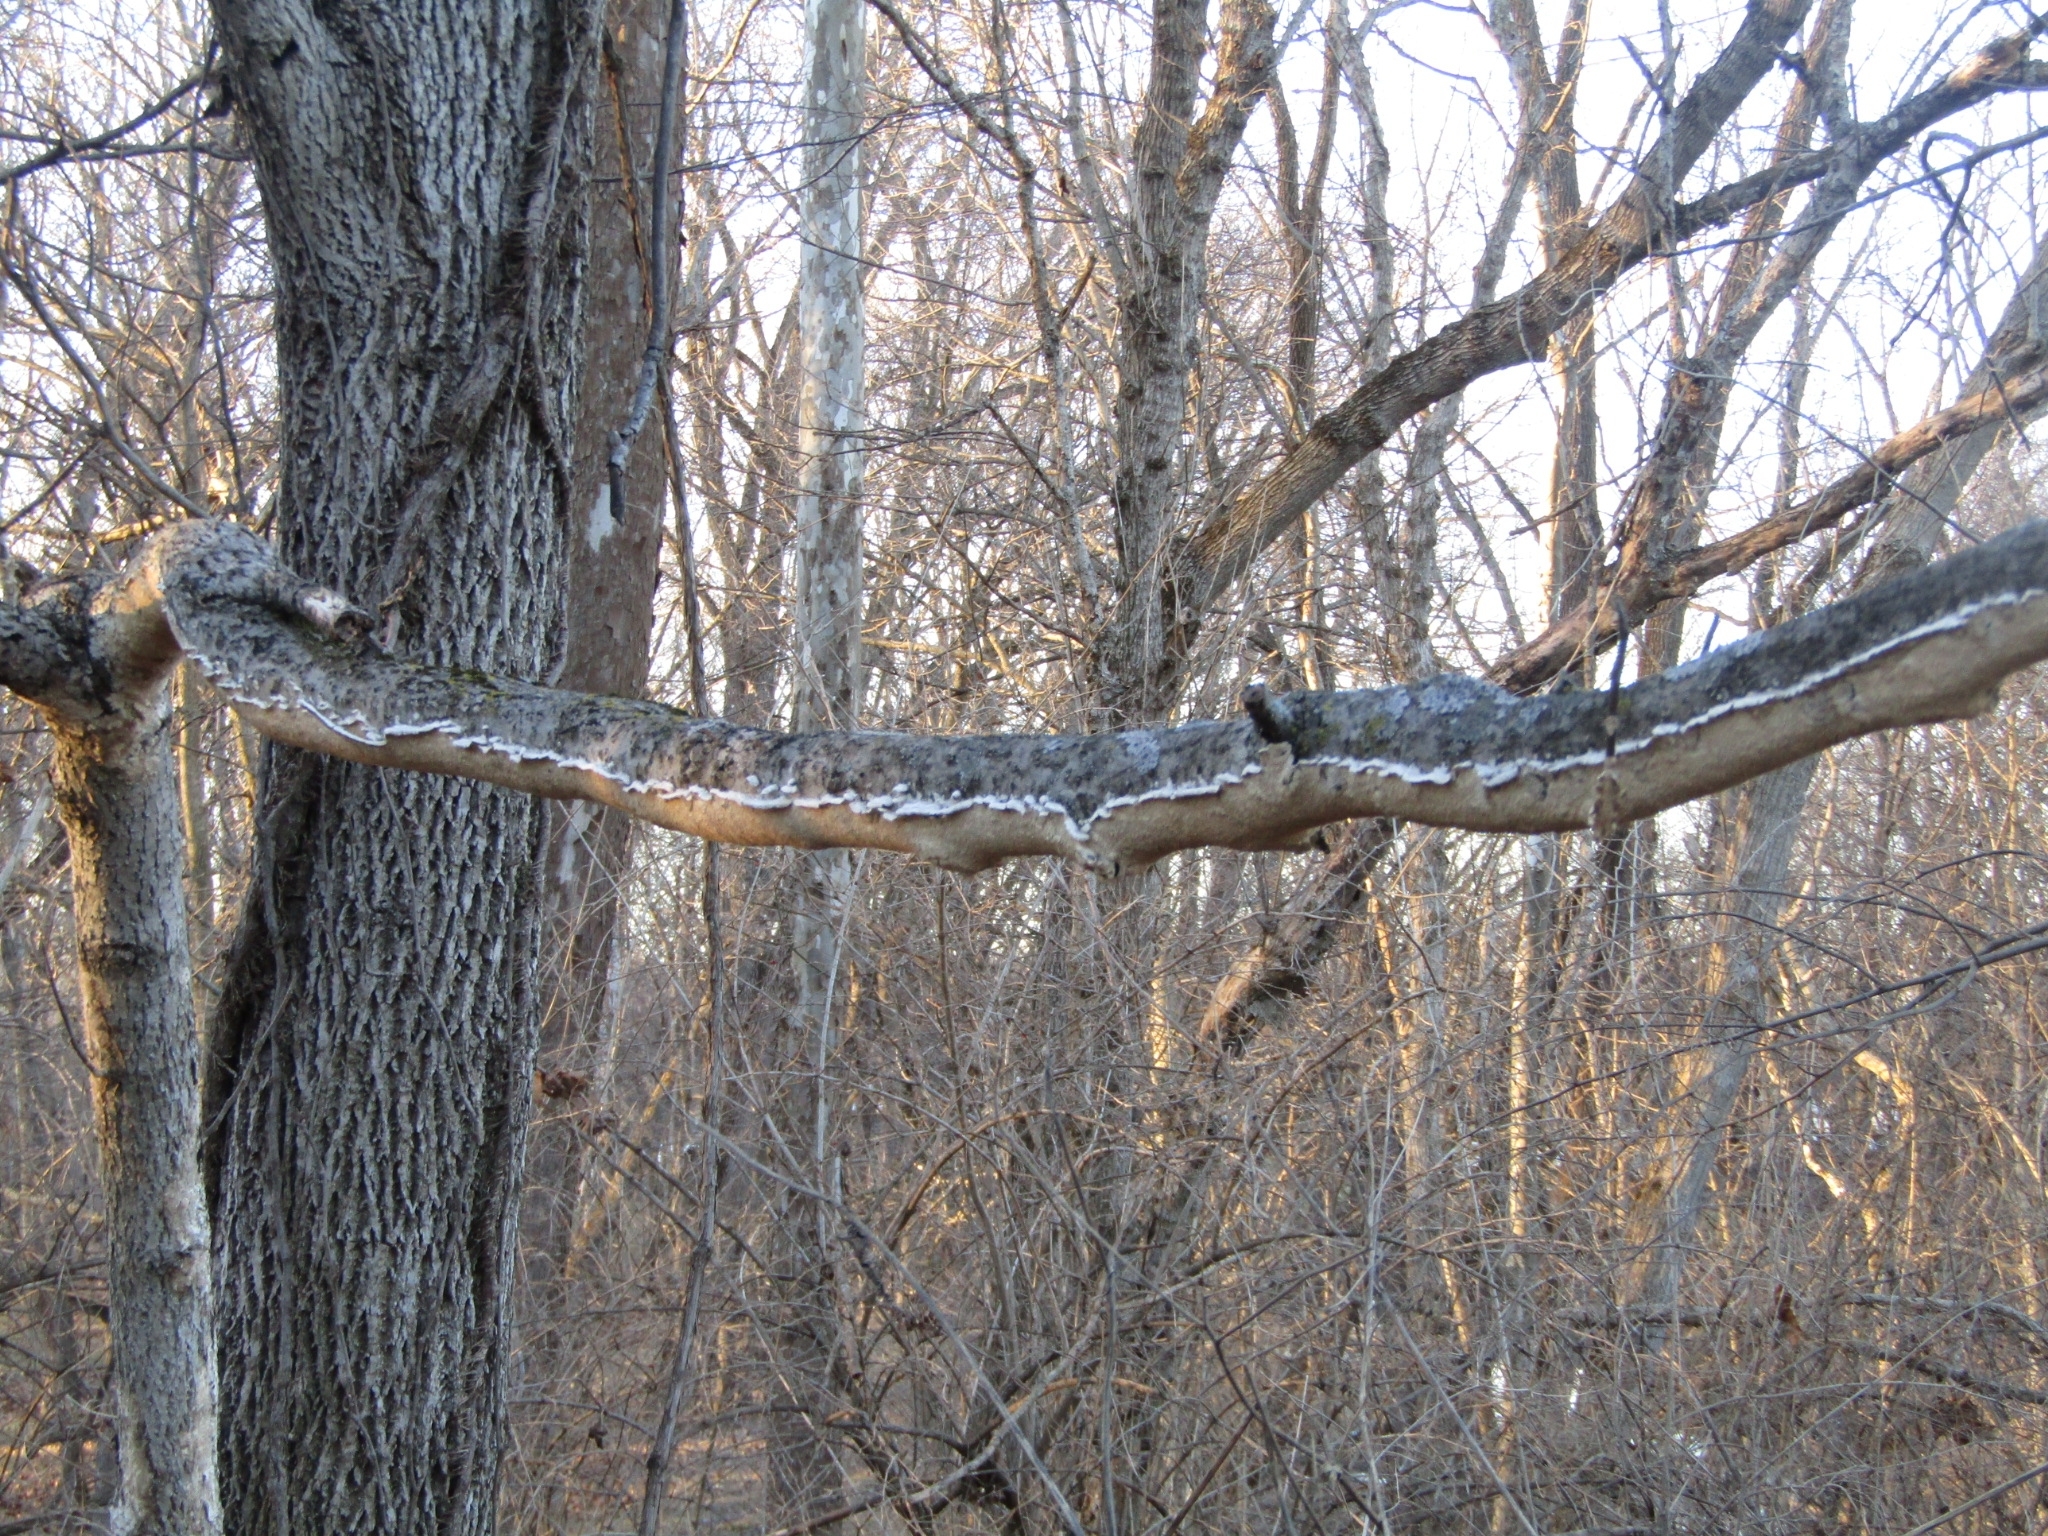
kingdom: Fungi
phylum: Basidiomycota
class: Agaricomycetes
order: Polyporales
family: Irpicaceae
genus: Irpex
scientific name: Irpex lacteus
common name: Milk-white toothed polypore
